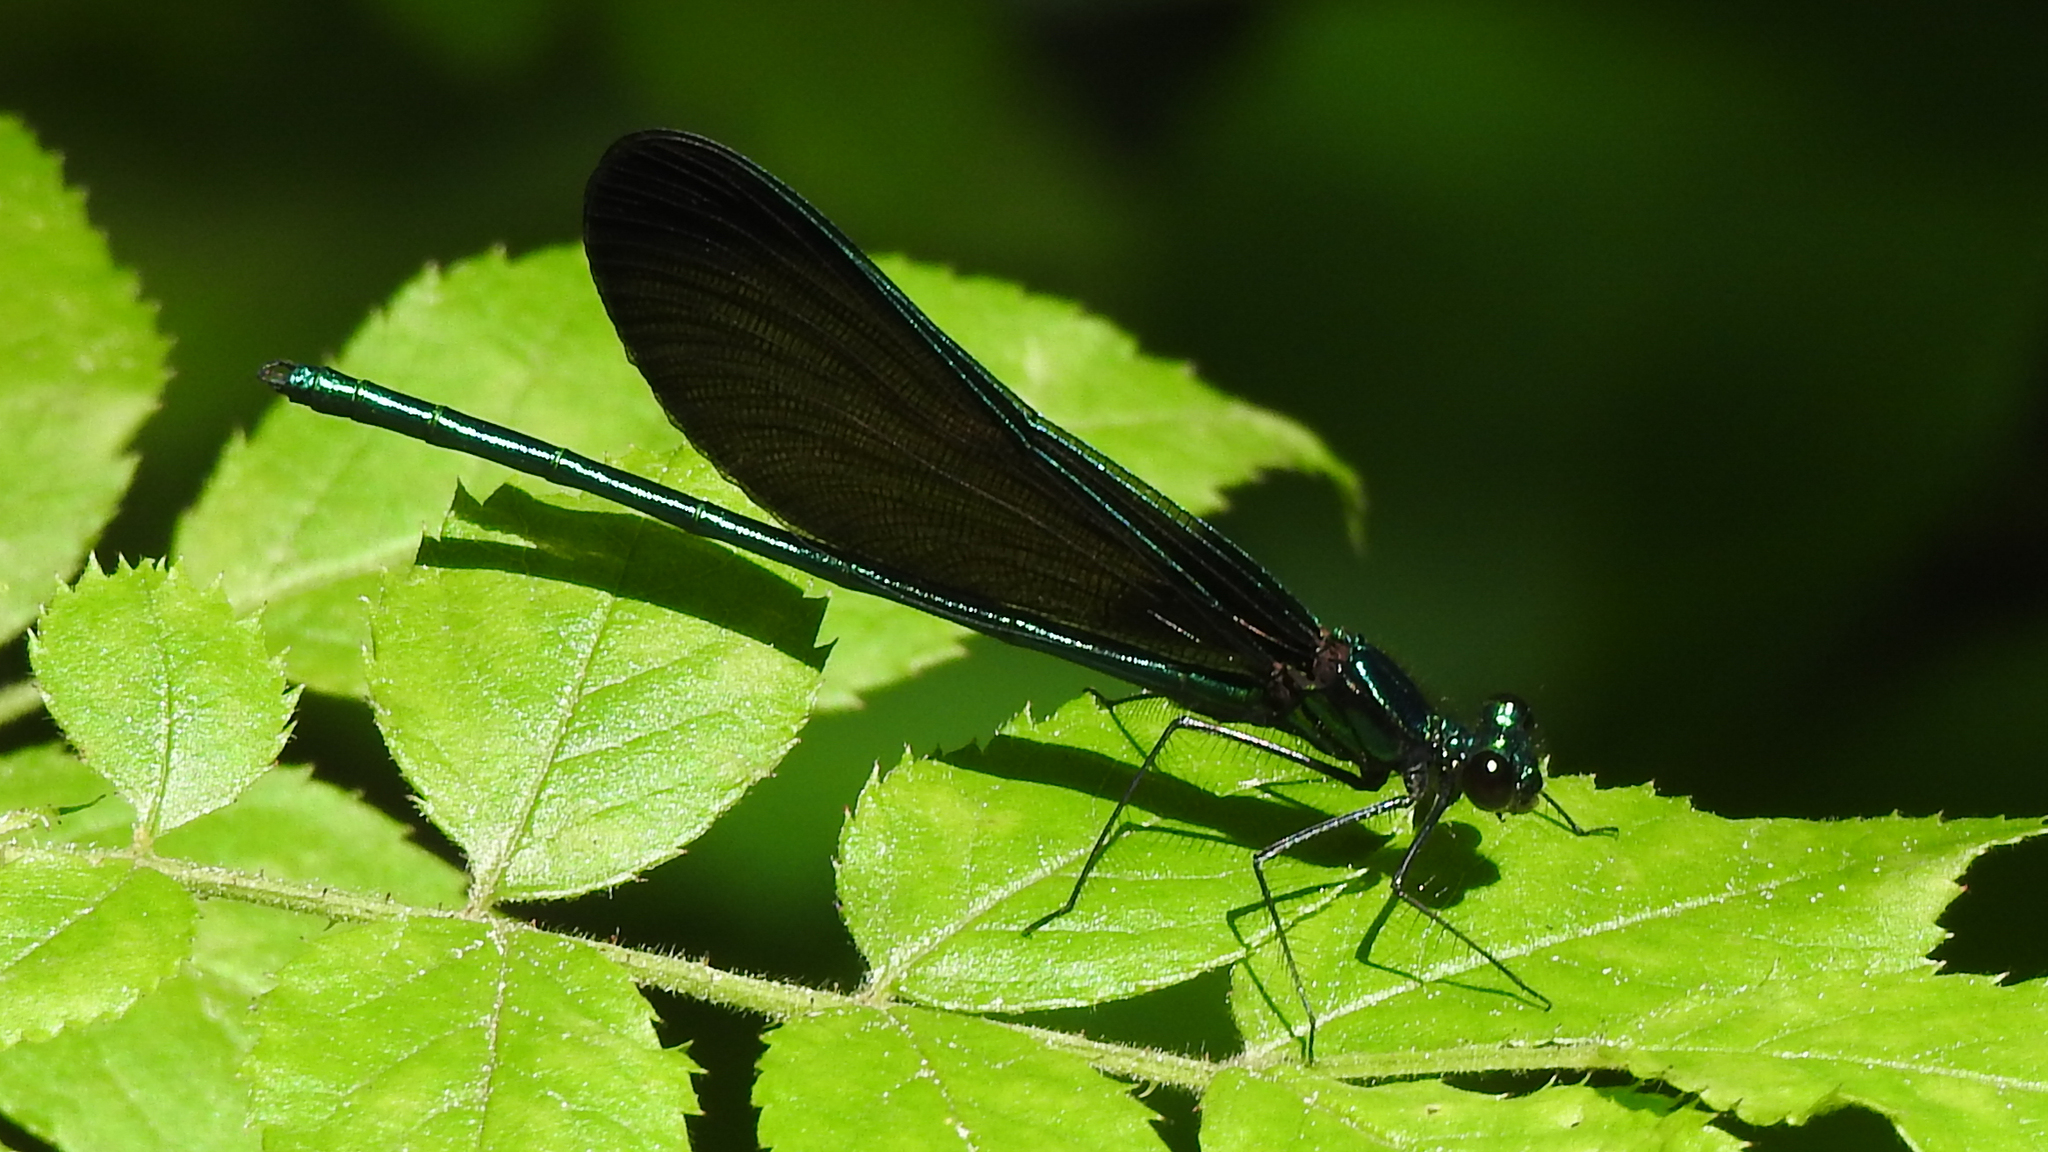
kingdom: Animalia
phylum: Arthropoda
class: Insecta
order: Odonata
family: Calopterygidae
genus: Calopteryx
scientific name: Calopteryx maculata
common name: Ebony jewelwing
